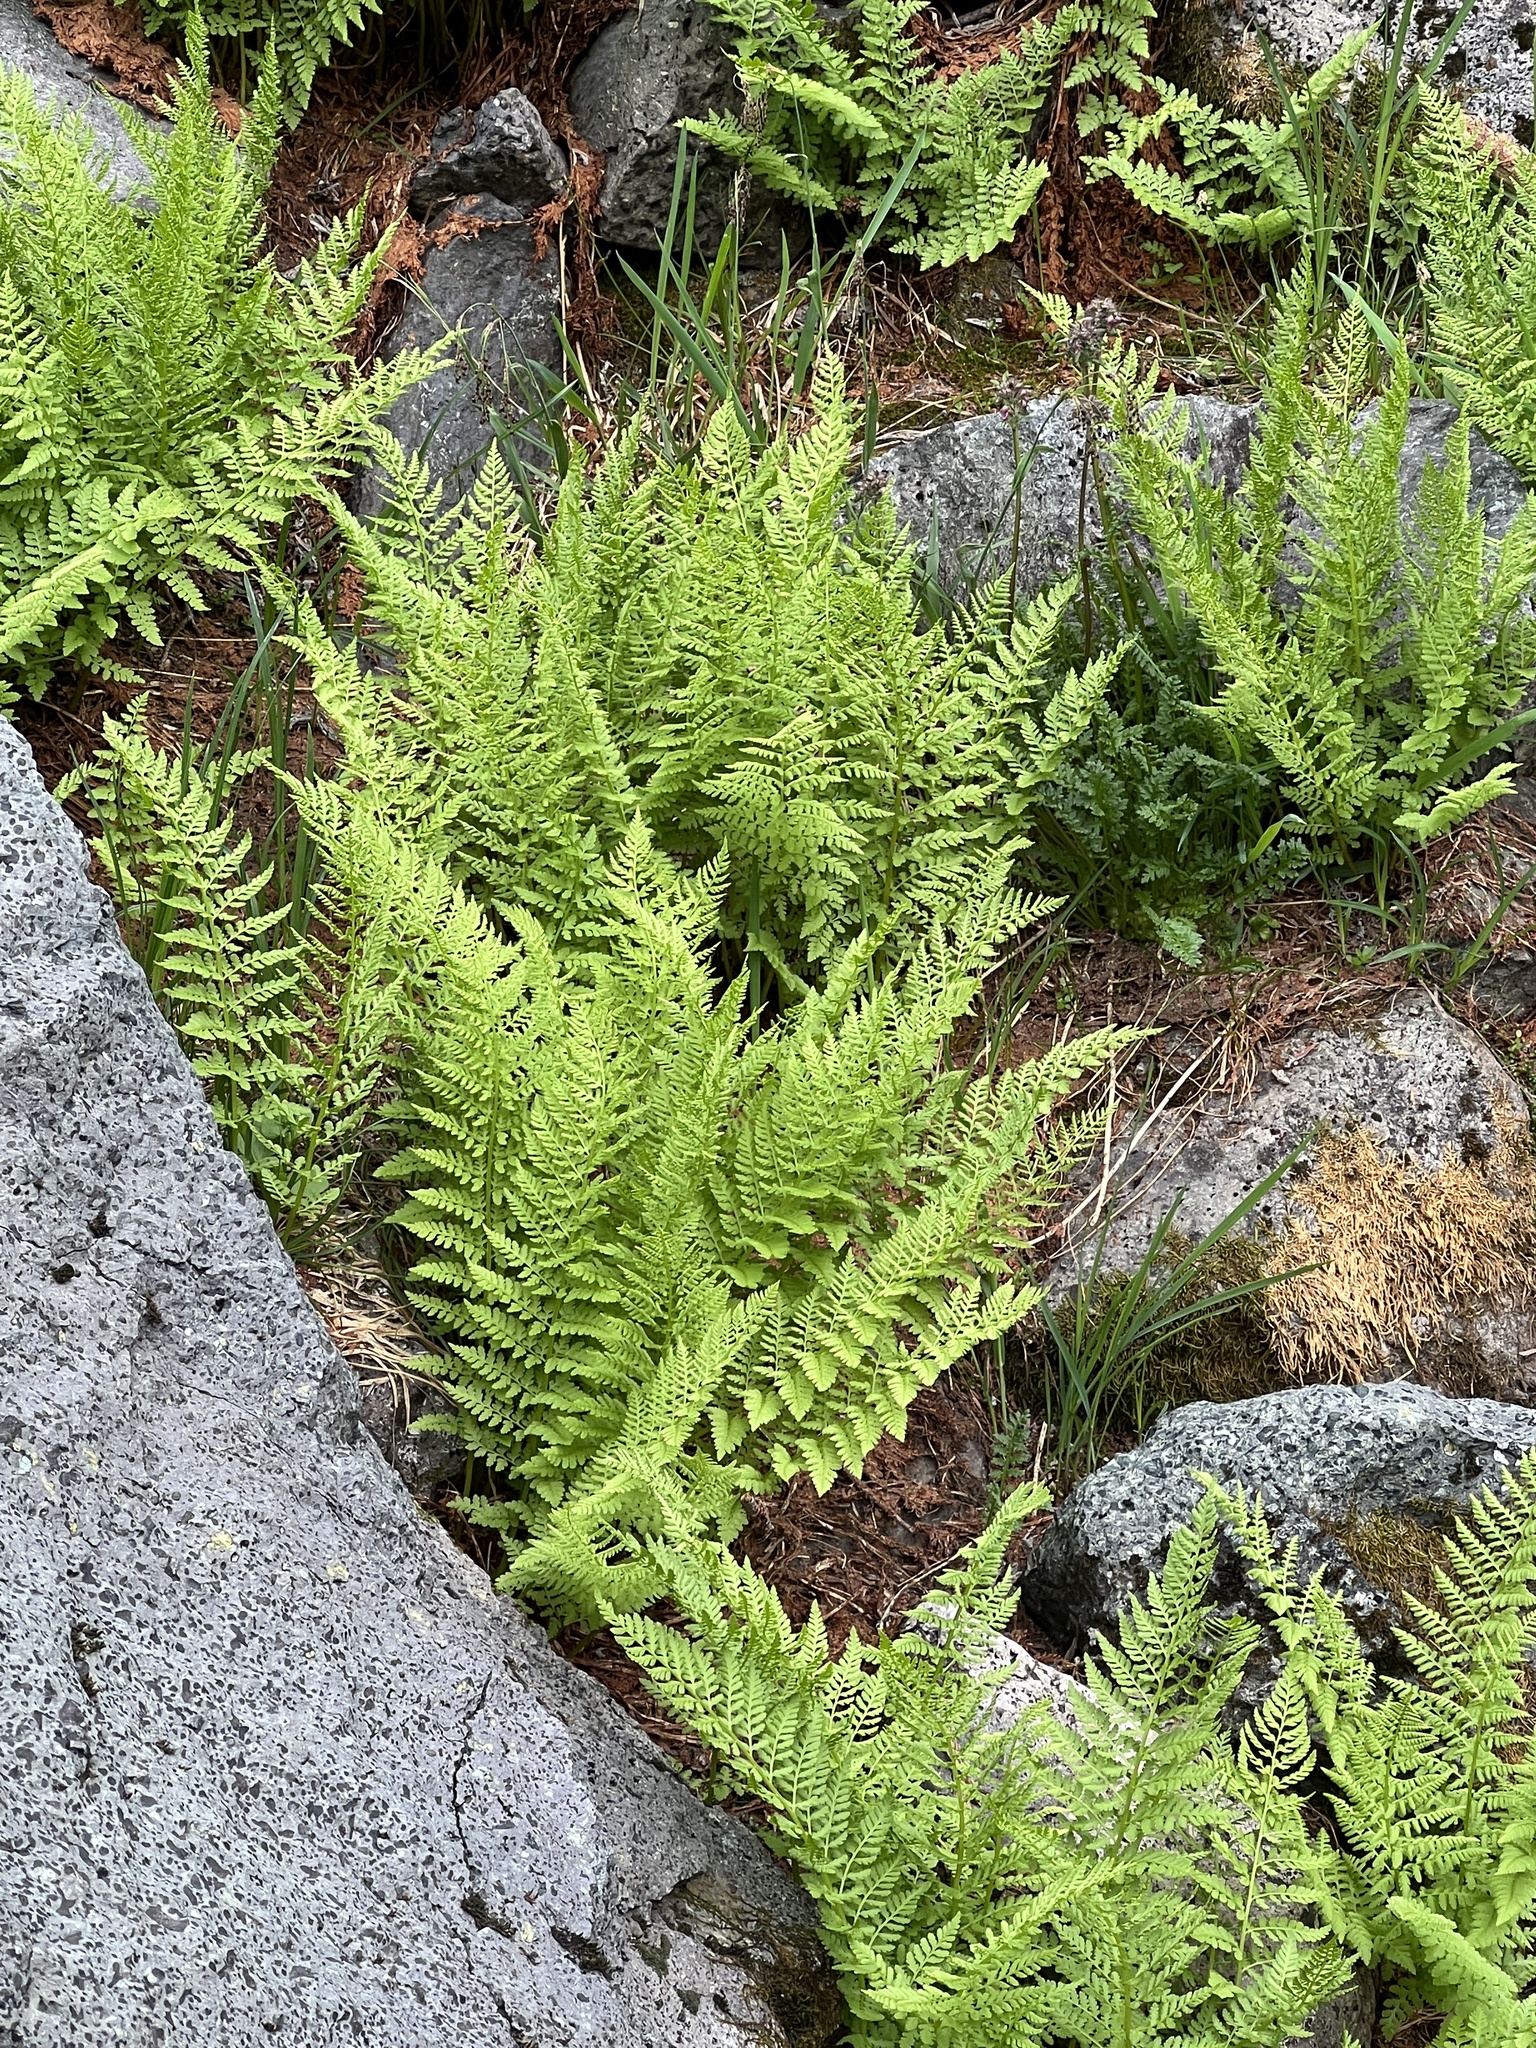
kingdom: Plantae
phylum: Tracheophyta
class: Polypodiopsida
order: Polypodiales
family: Athyriaceae
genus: Athyrium
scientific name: Athyrium americanum
